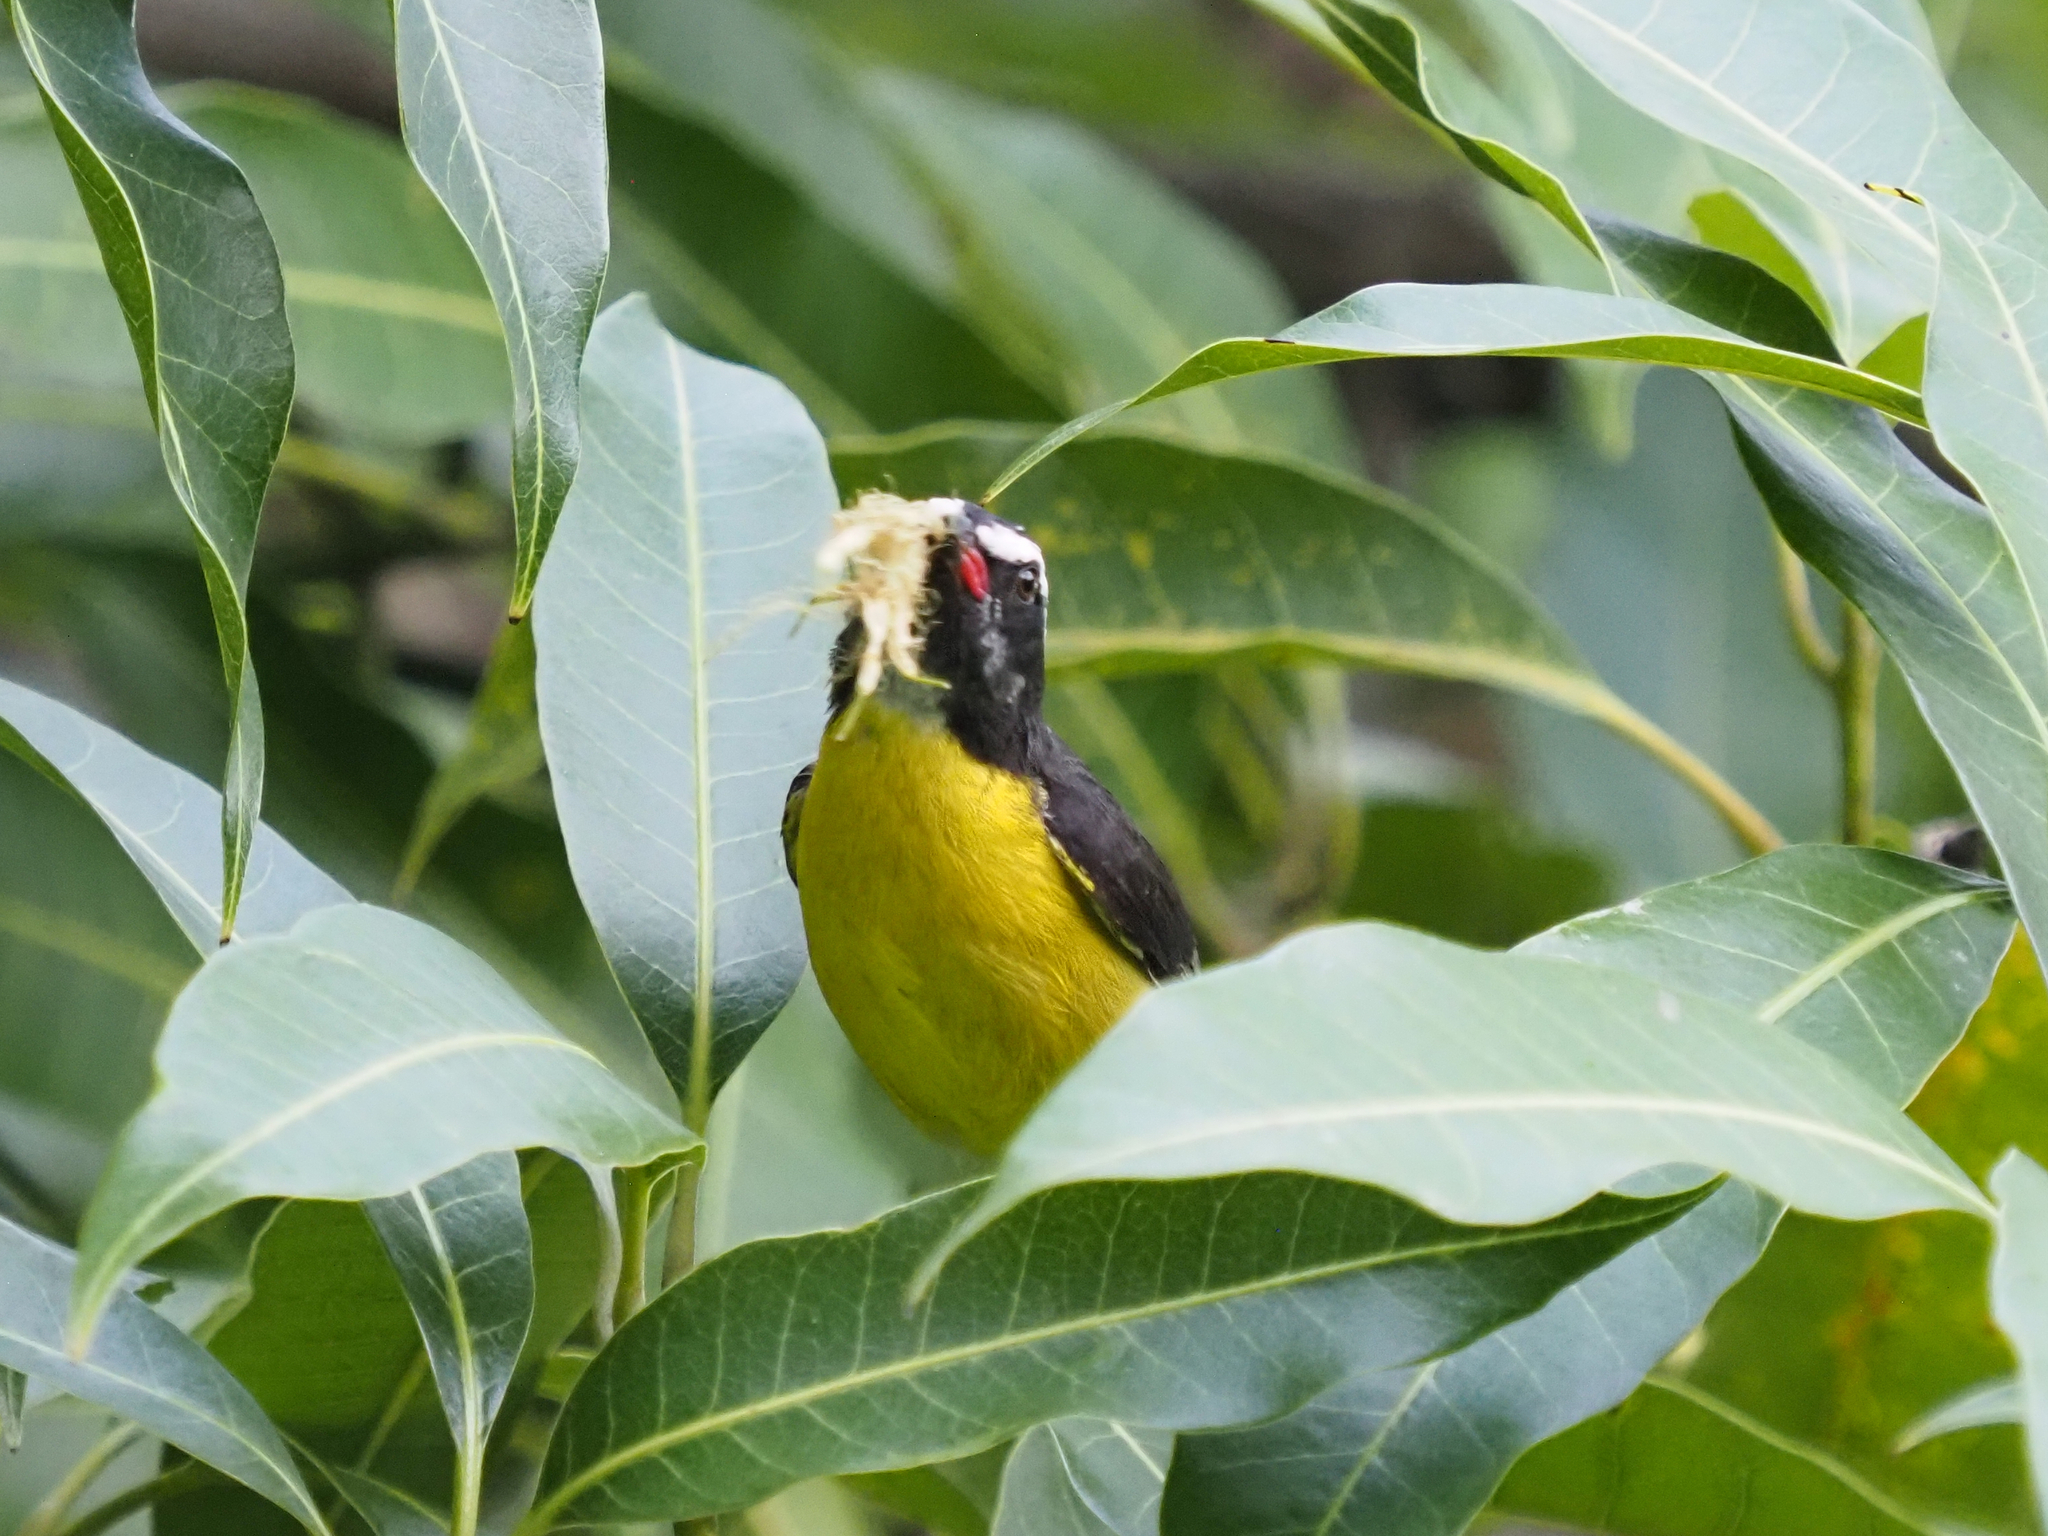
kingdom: Animalia
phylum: Chordata
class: Aves
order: Passeriformes
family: Thraupidae
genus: Coereba
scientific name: Coereba flaveola
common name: Bananaquit
